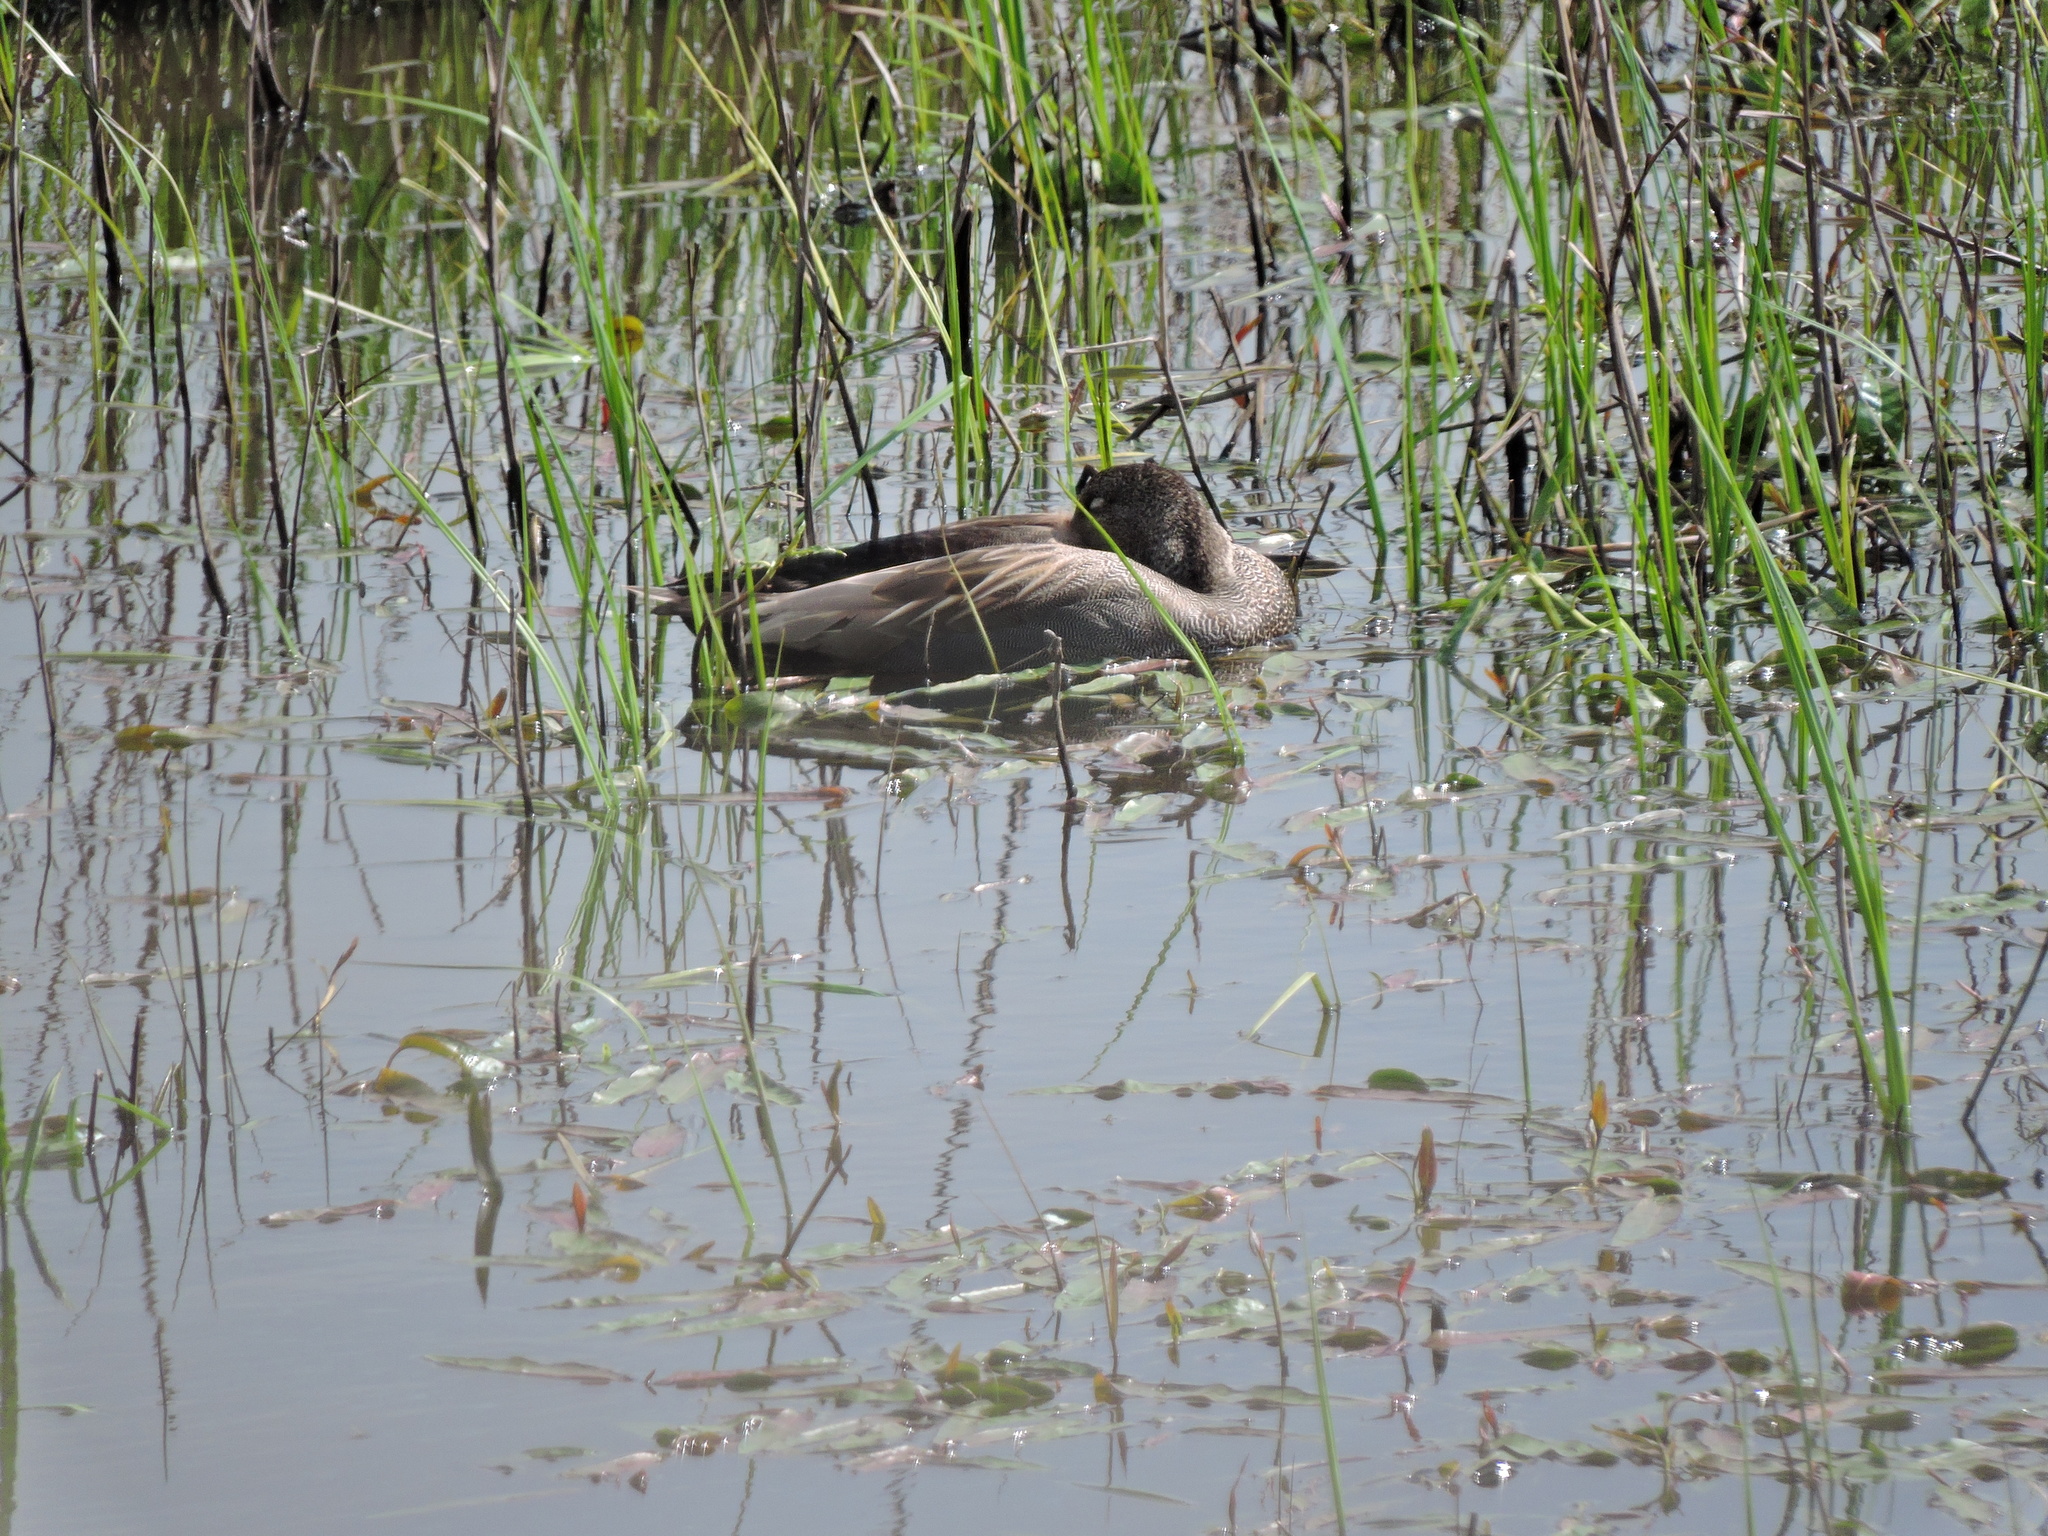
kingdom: Animalia
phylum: Chordata
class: Aves
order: Anseriformes
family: Anatidae
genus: Mareca
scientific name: Mareca strepera
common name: Gadwall
